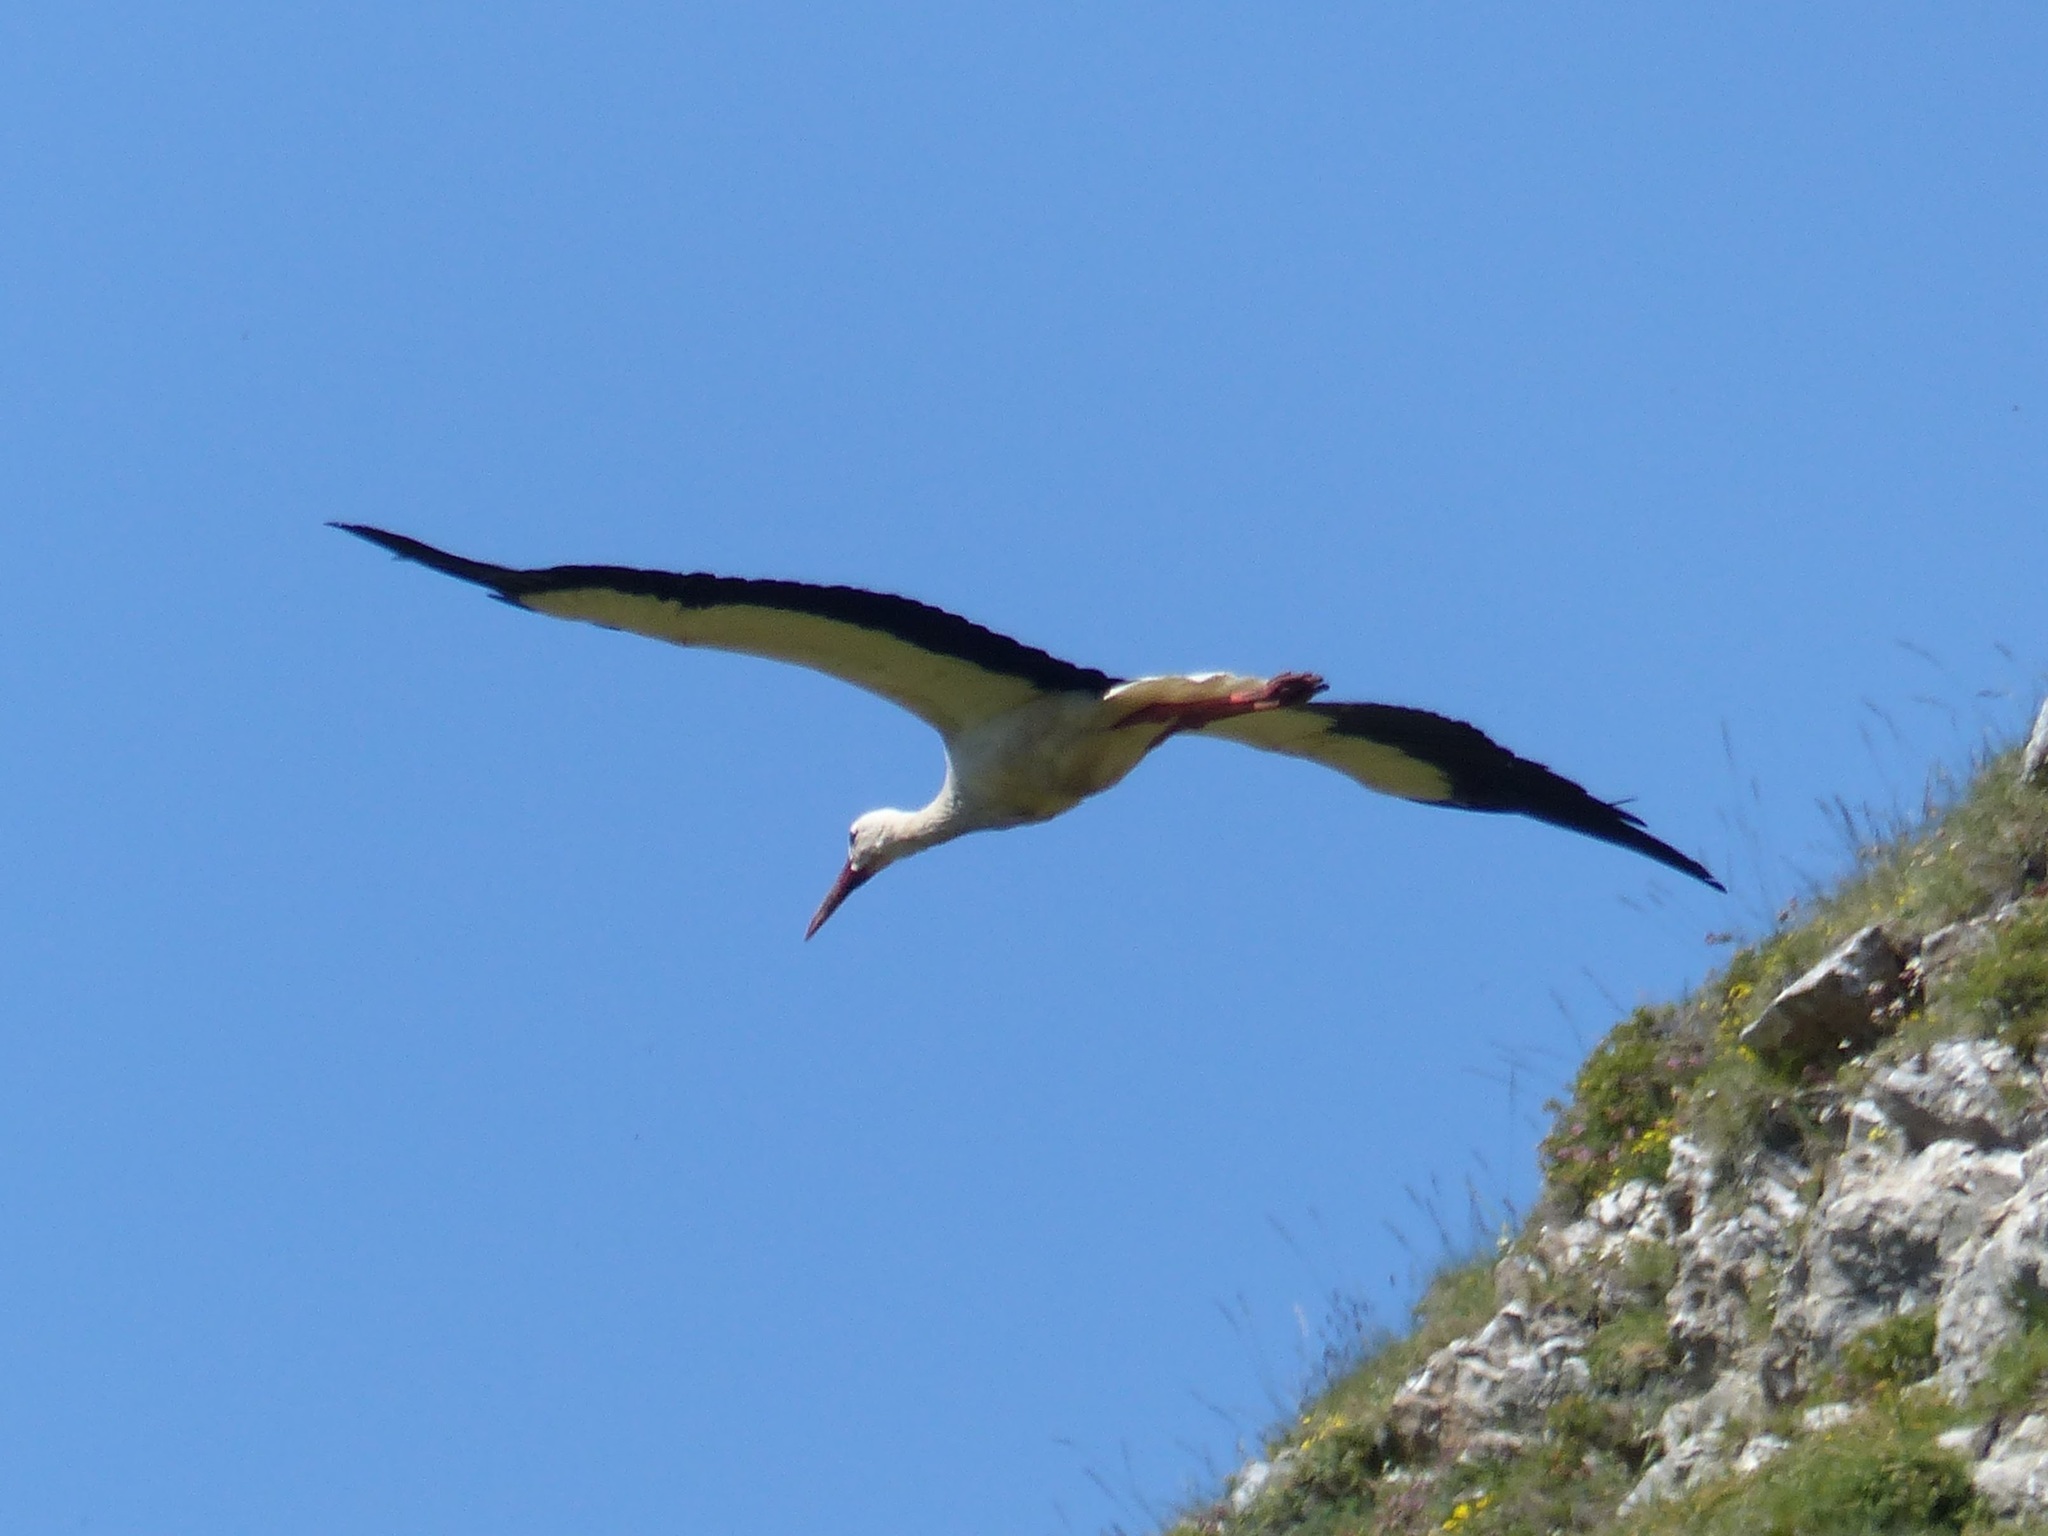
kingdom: Animalia
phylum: Chordata
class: Aves
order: Ciconiiformes
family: Ciconiidae
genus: Ciconia
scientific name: Ciconia ciconia
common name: White stork
